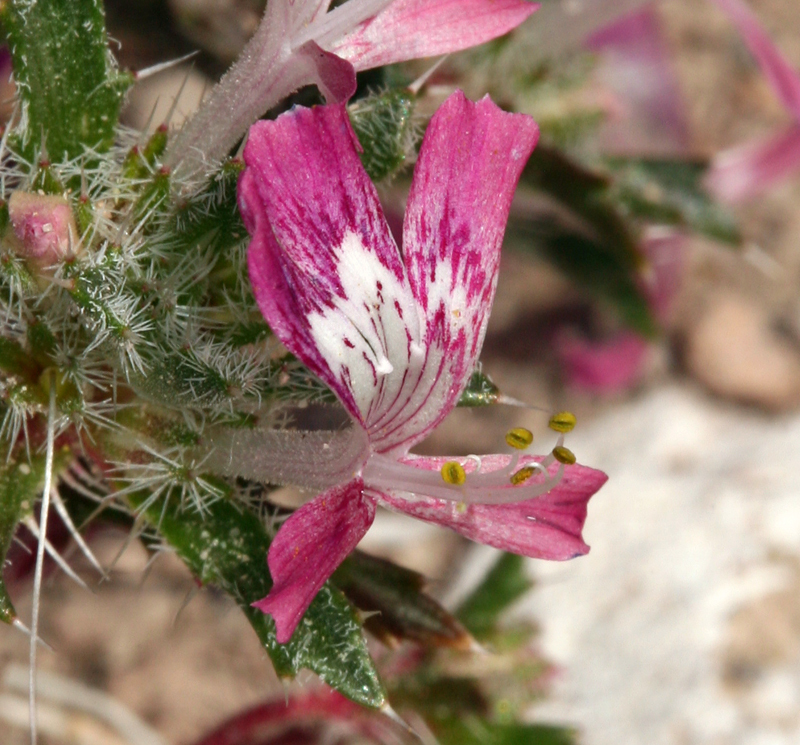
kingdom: Plantae
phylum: Tracheophyta
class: Magnoliopsida
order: Ericales
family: Polemoniaceae
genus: Loeseliastrum
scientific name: Loeseliastrum matthewsii
